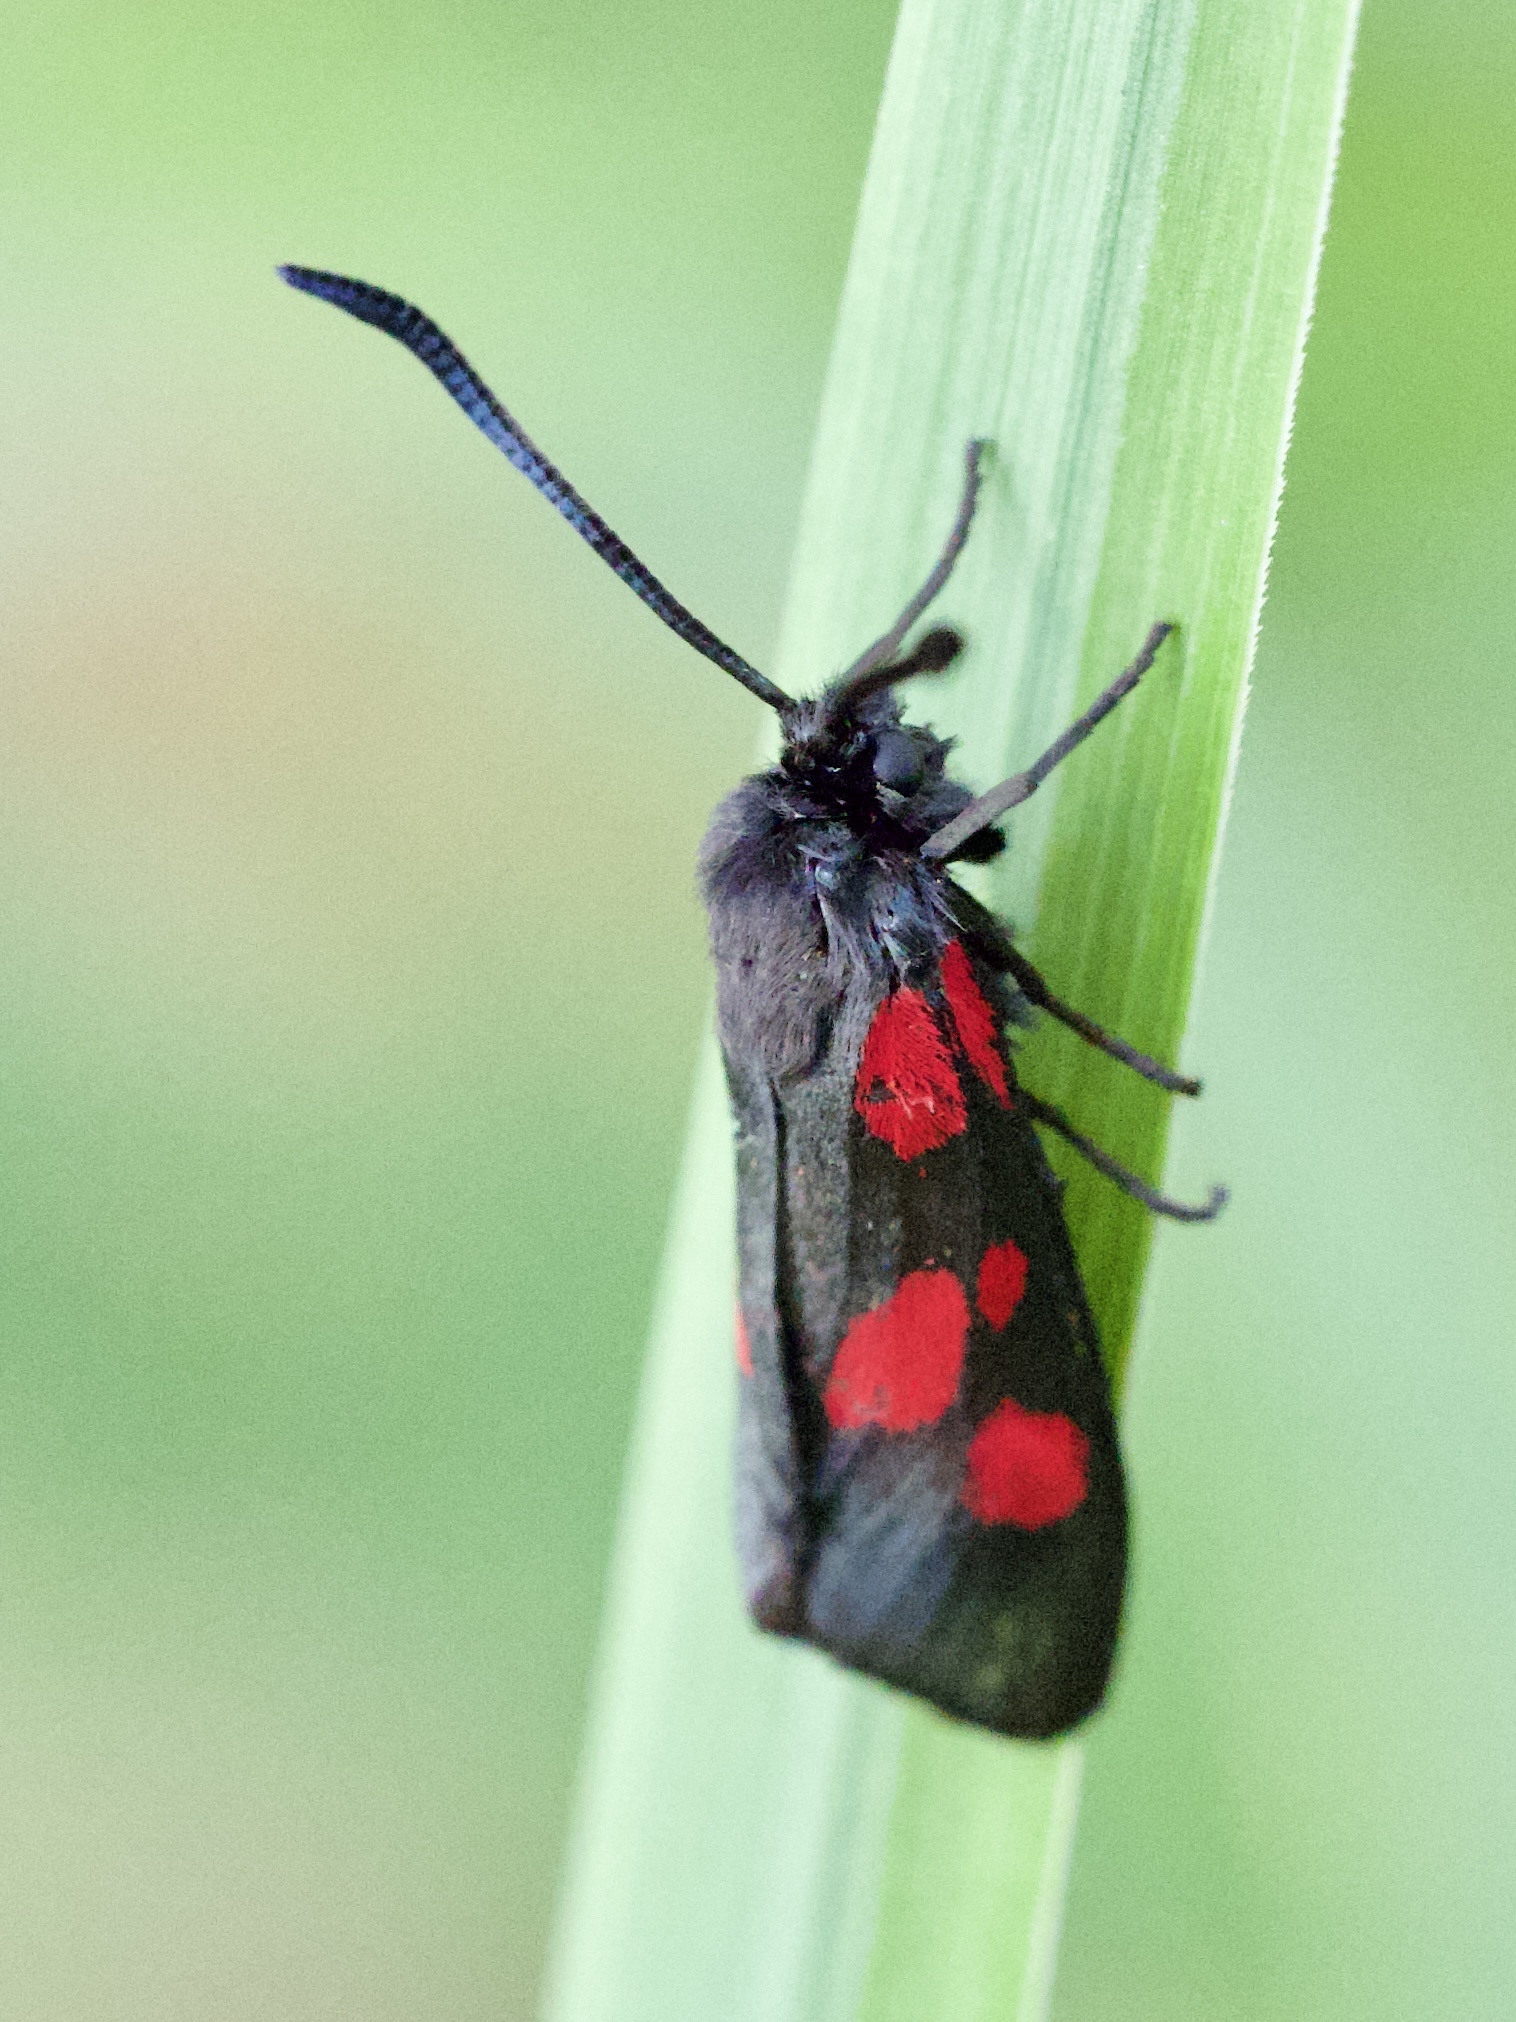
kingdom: Animalia
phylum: Arthropoda
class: Insecta
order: Lepidoptera
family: Zygaenidae
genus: Zygaena
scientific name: Zygaena viciae
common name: New forest burnet
